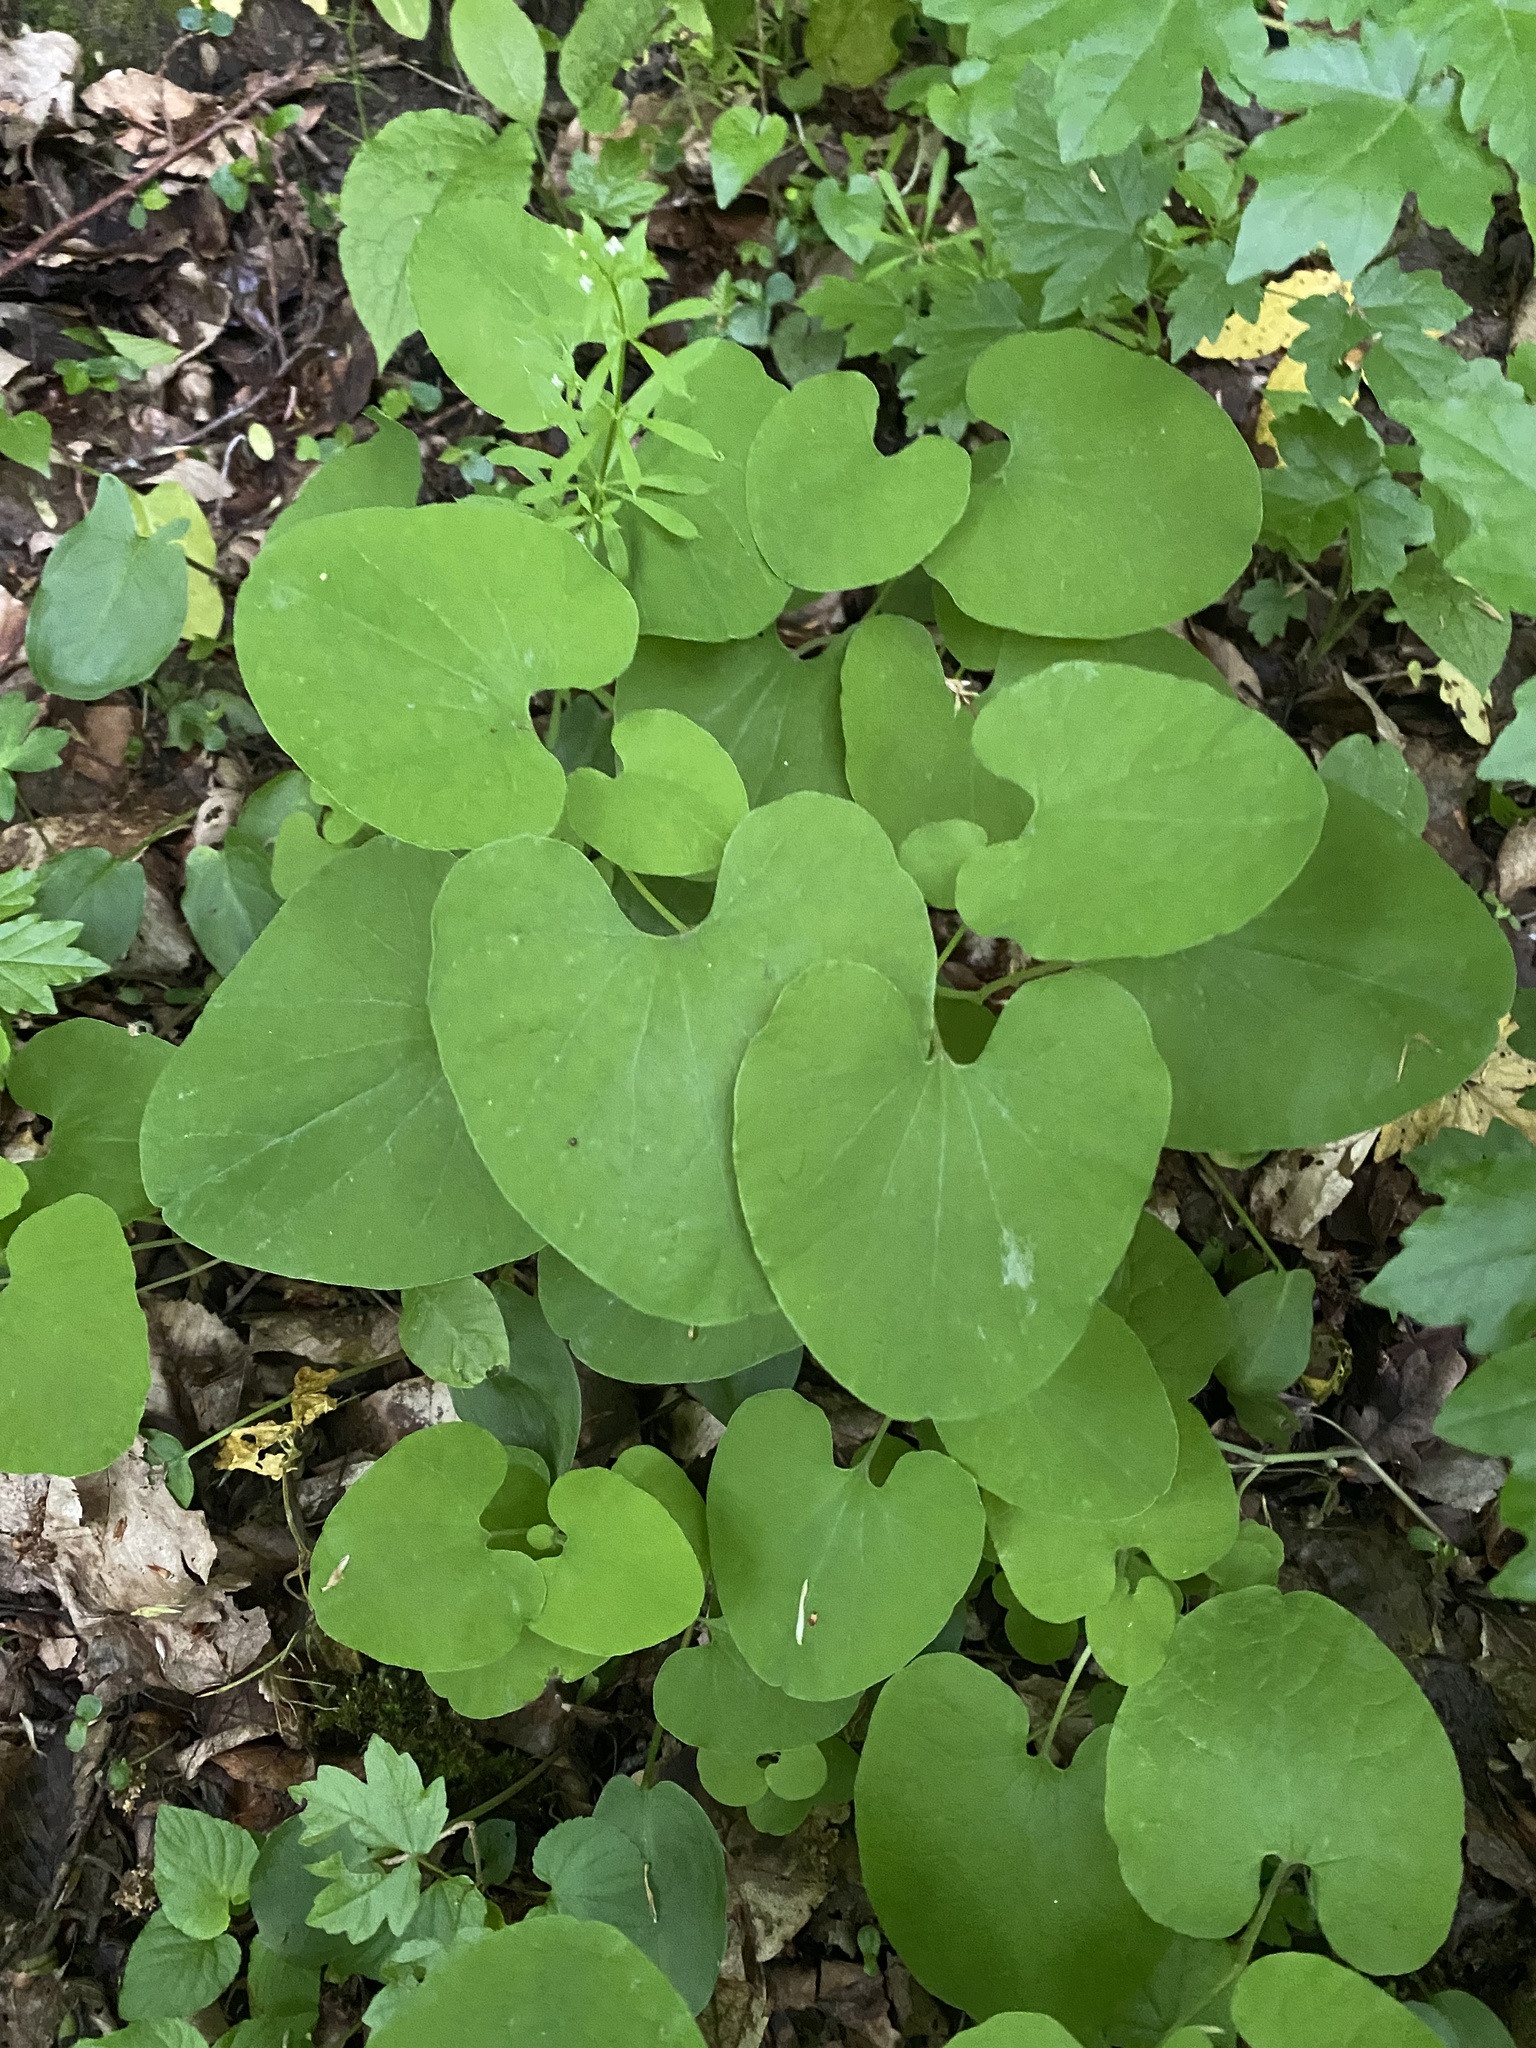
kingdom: Plantae
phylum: Tracheophyta
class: Magnoliopsida
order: Piperales
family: Aristolochiaceae
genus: Aristolochia
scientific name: Aristolochia steupii
